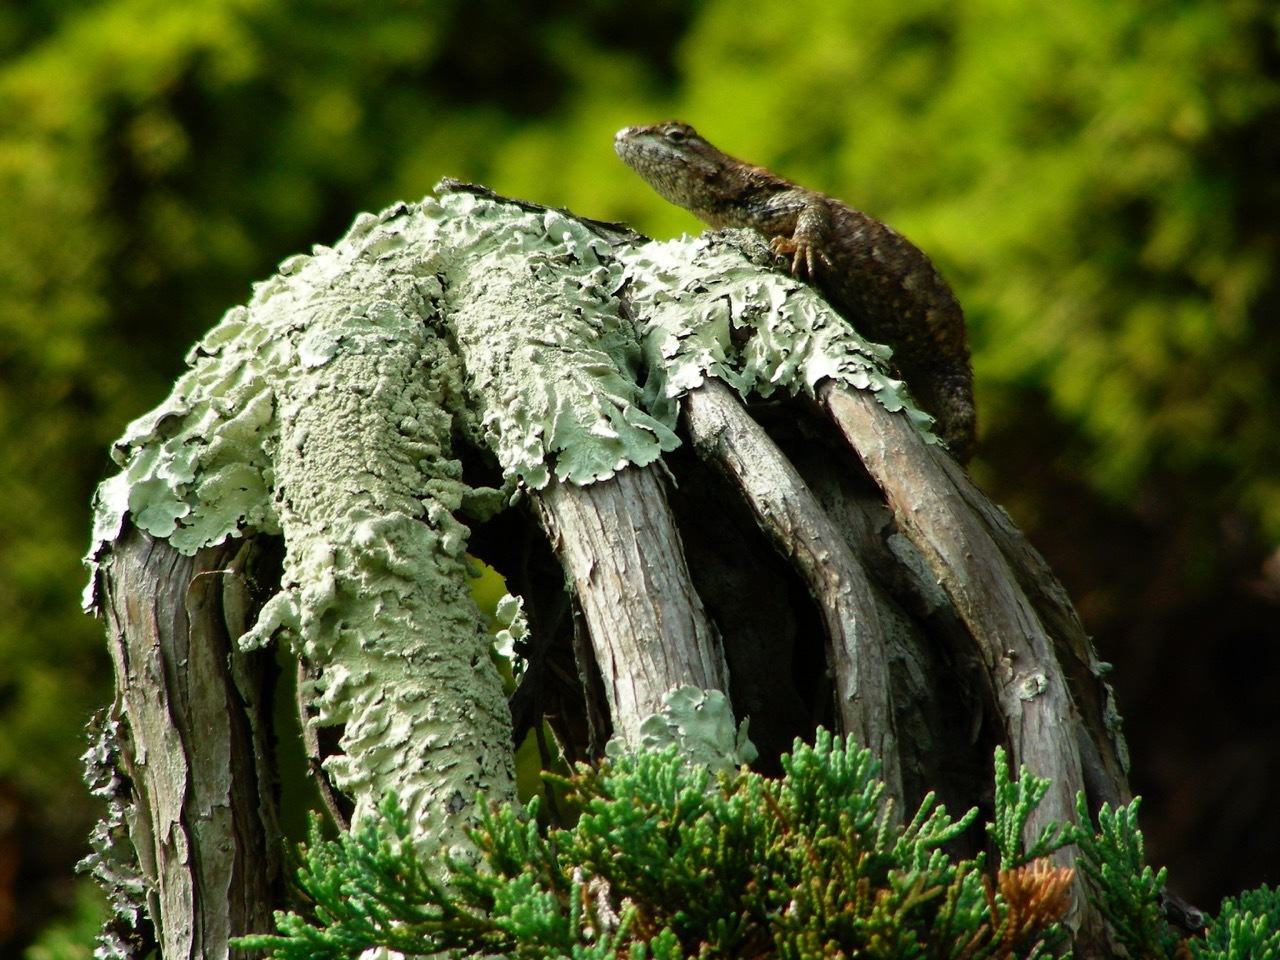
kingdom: Animalia
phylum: Chordata
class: Squamata
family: Phrynosomatidae
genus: Sceloporus
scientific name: Sceloporus undulatus
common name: Eastern fence lizard
